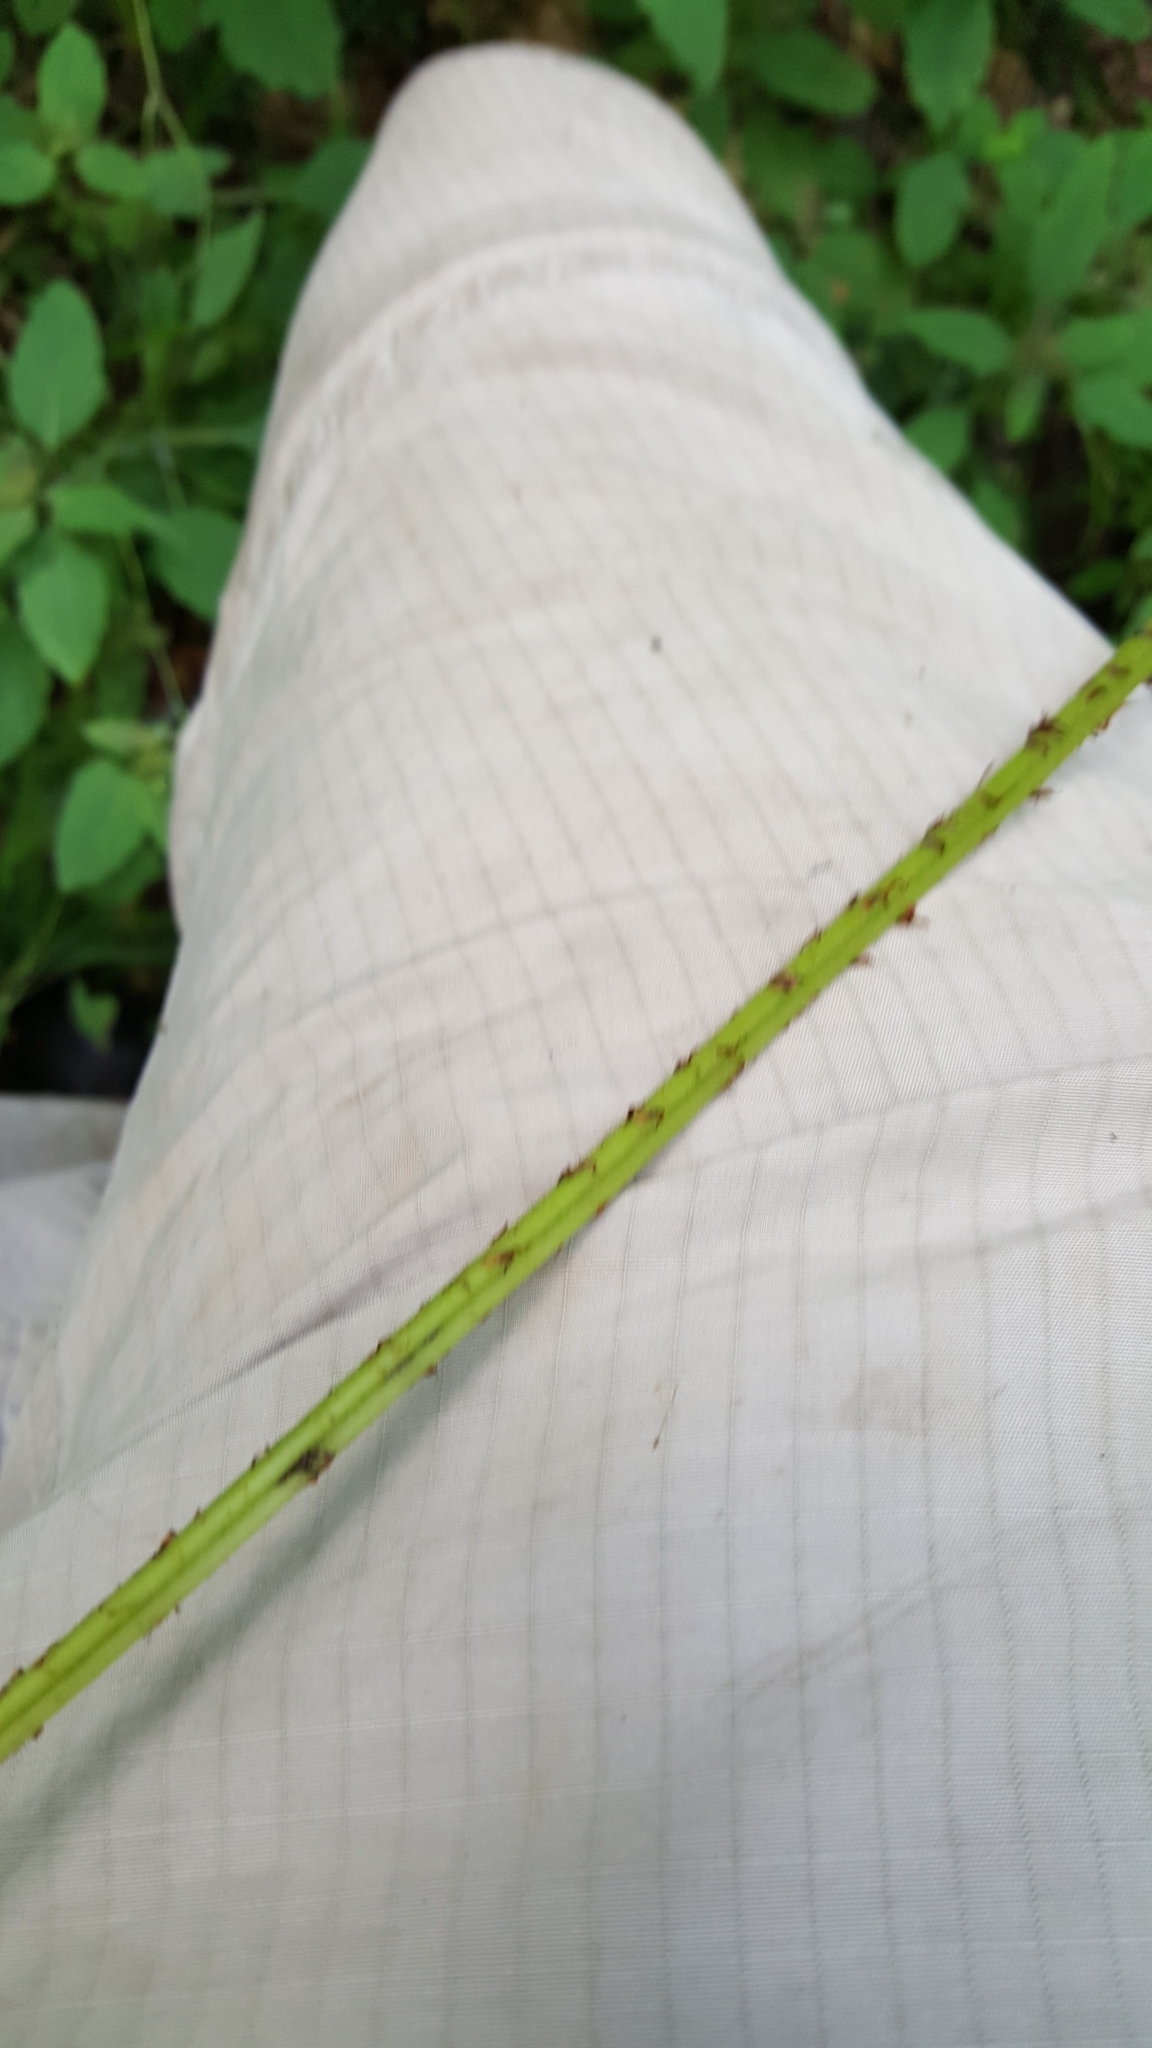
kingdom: Plantae
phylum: Tracheophyta
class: Polypodiopsida
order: Polypodiales
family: Athyriaceae
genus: Athyrium
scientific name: Athyrium angustum
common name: Northern lady fern
